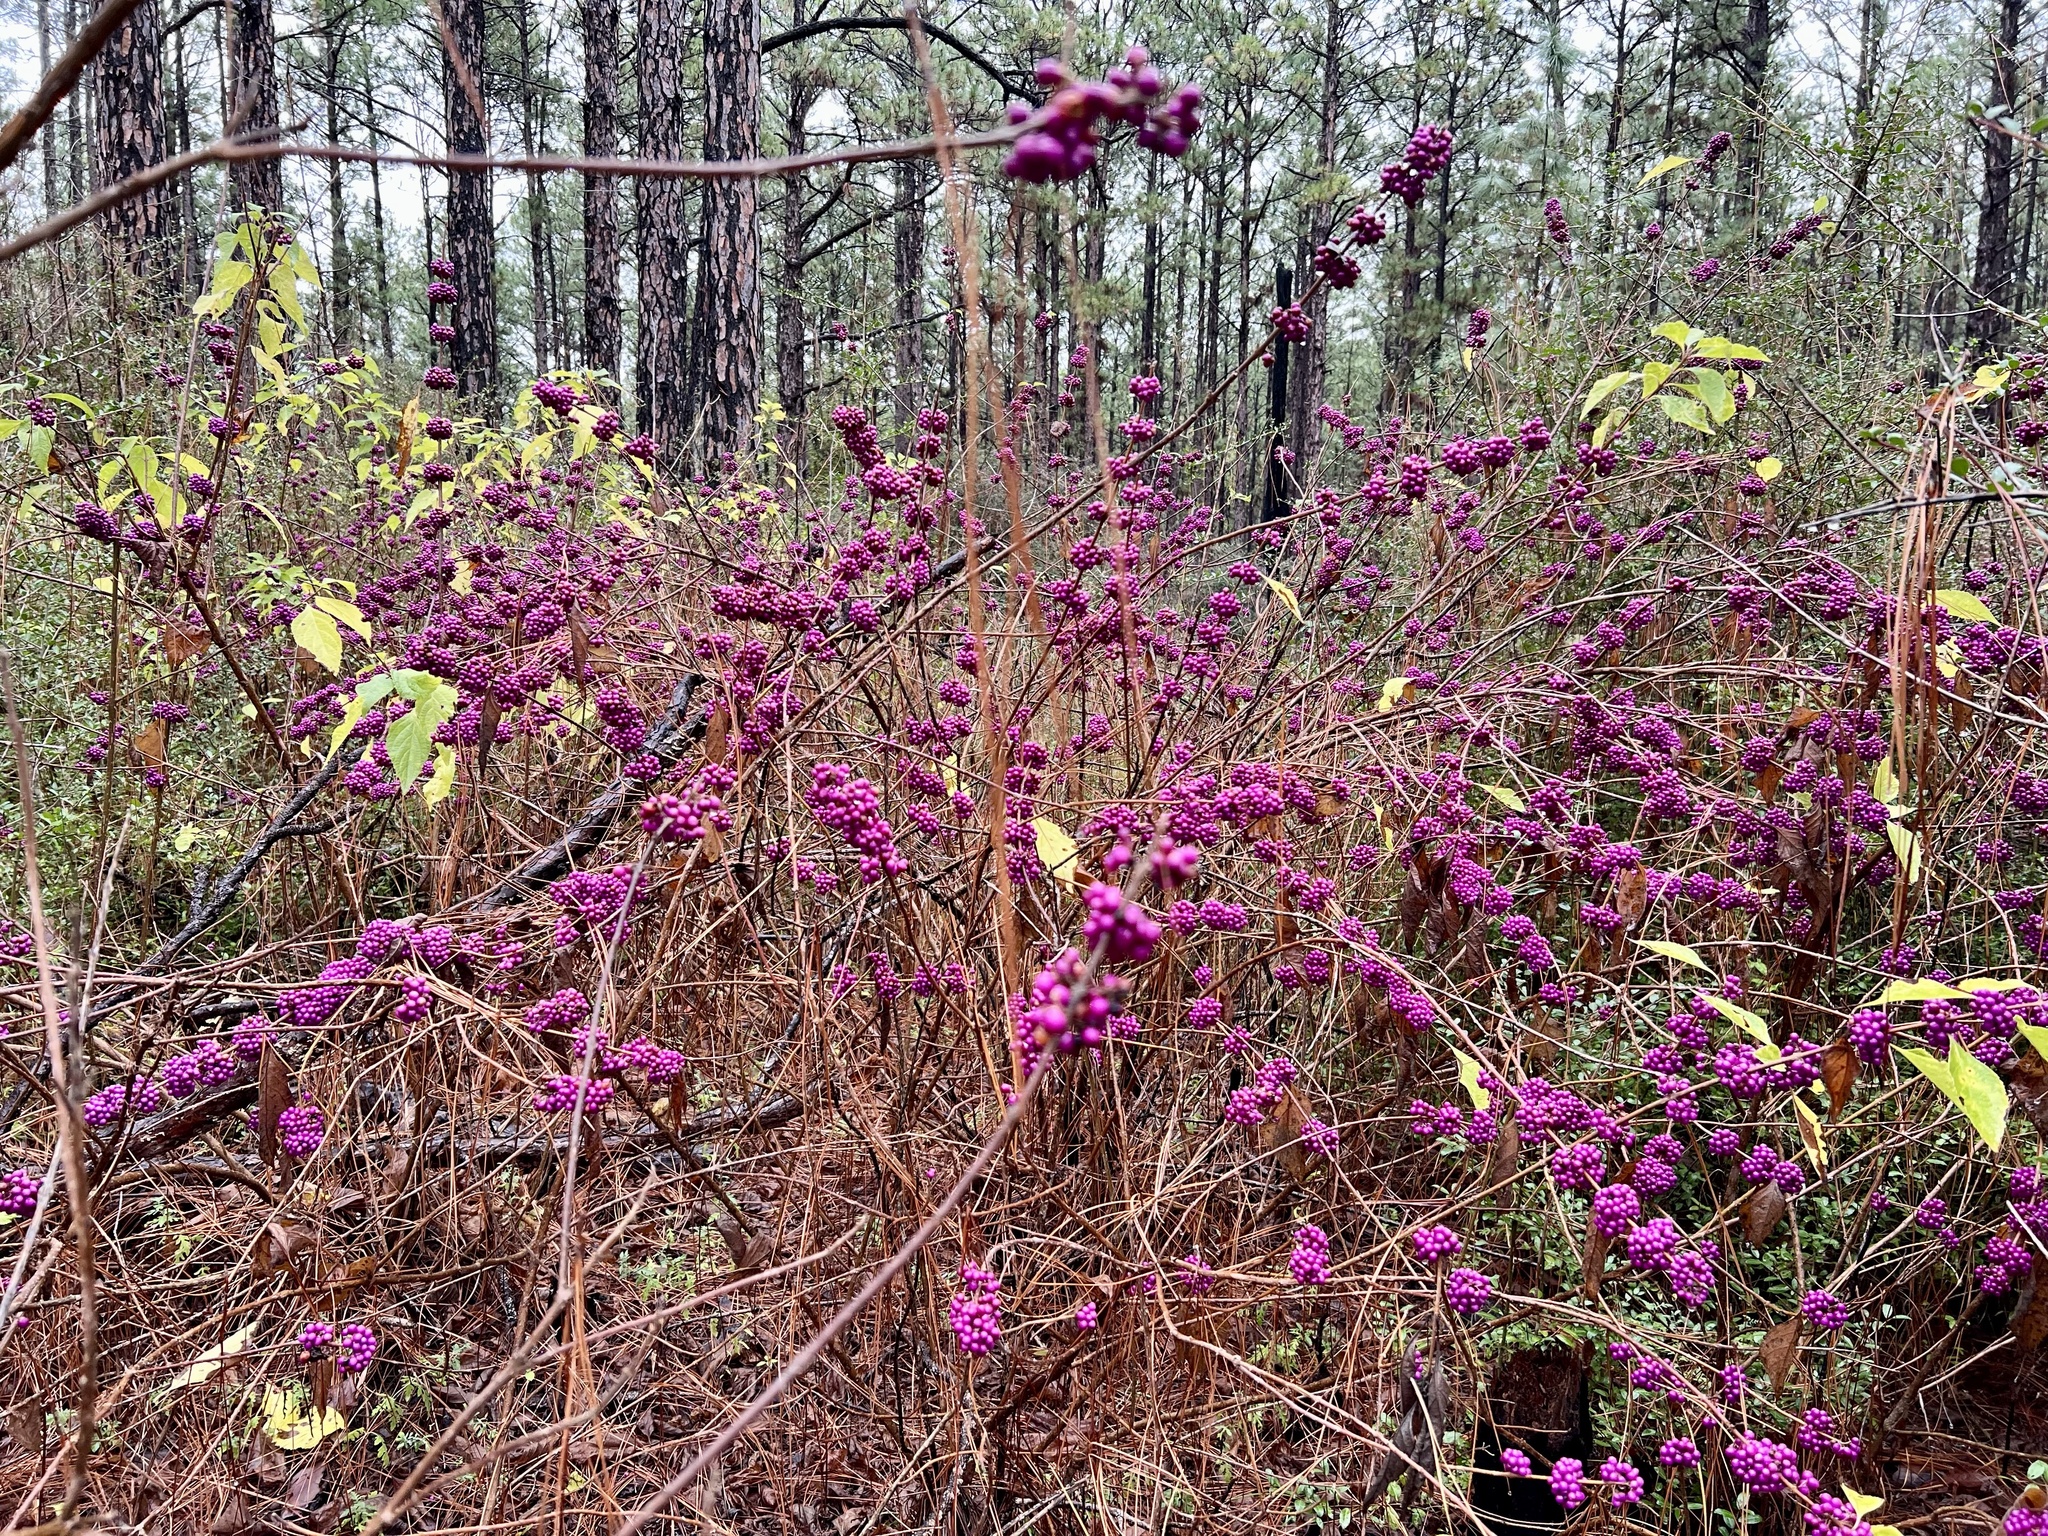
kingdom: Plantae
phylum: Tracheophyta
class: Magnoliopsida
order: Lamiales
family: Lamiaceae
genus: Callicarpa
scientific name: Callicarpa americana
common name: American beautyberry
